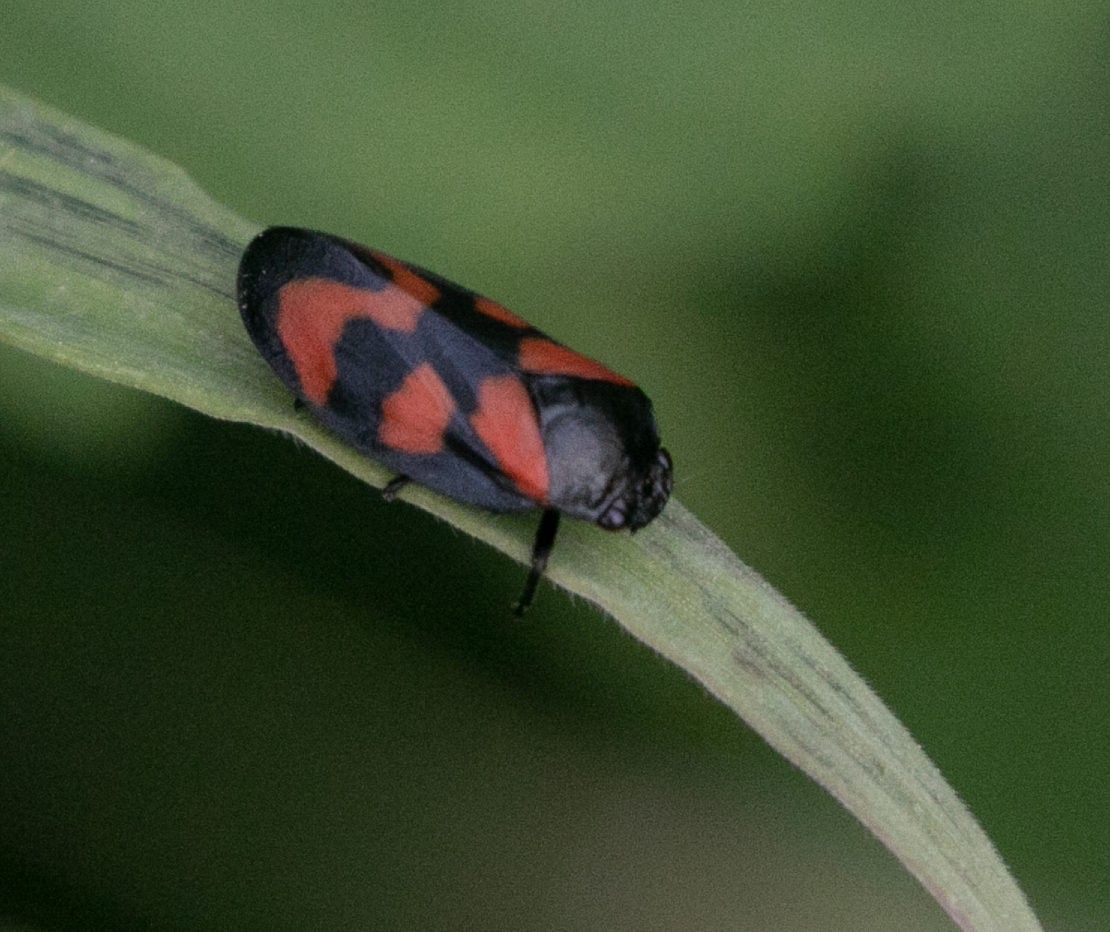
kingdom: Animalia
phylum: Arthropoda
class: Insecta
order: Hemiptera
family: Cercopidae
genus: Cercopis
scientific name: Cercopis vulnerata
